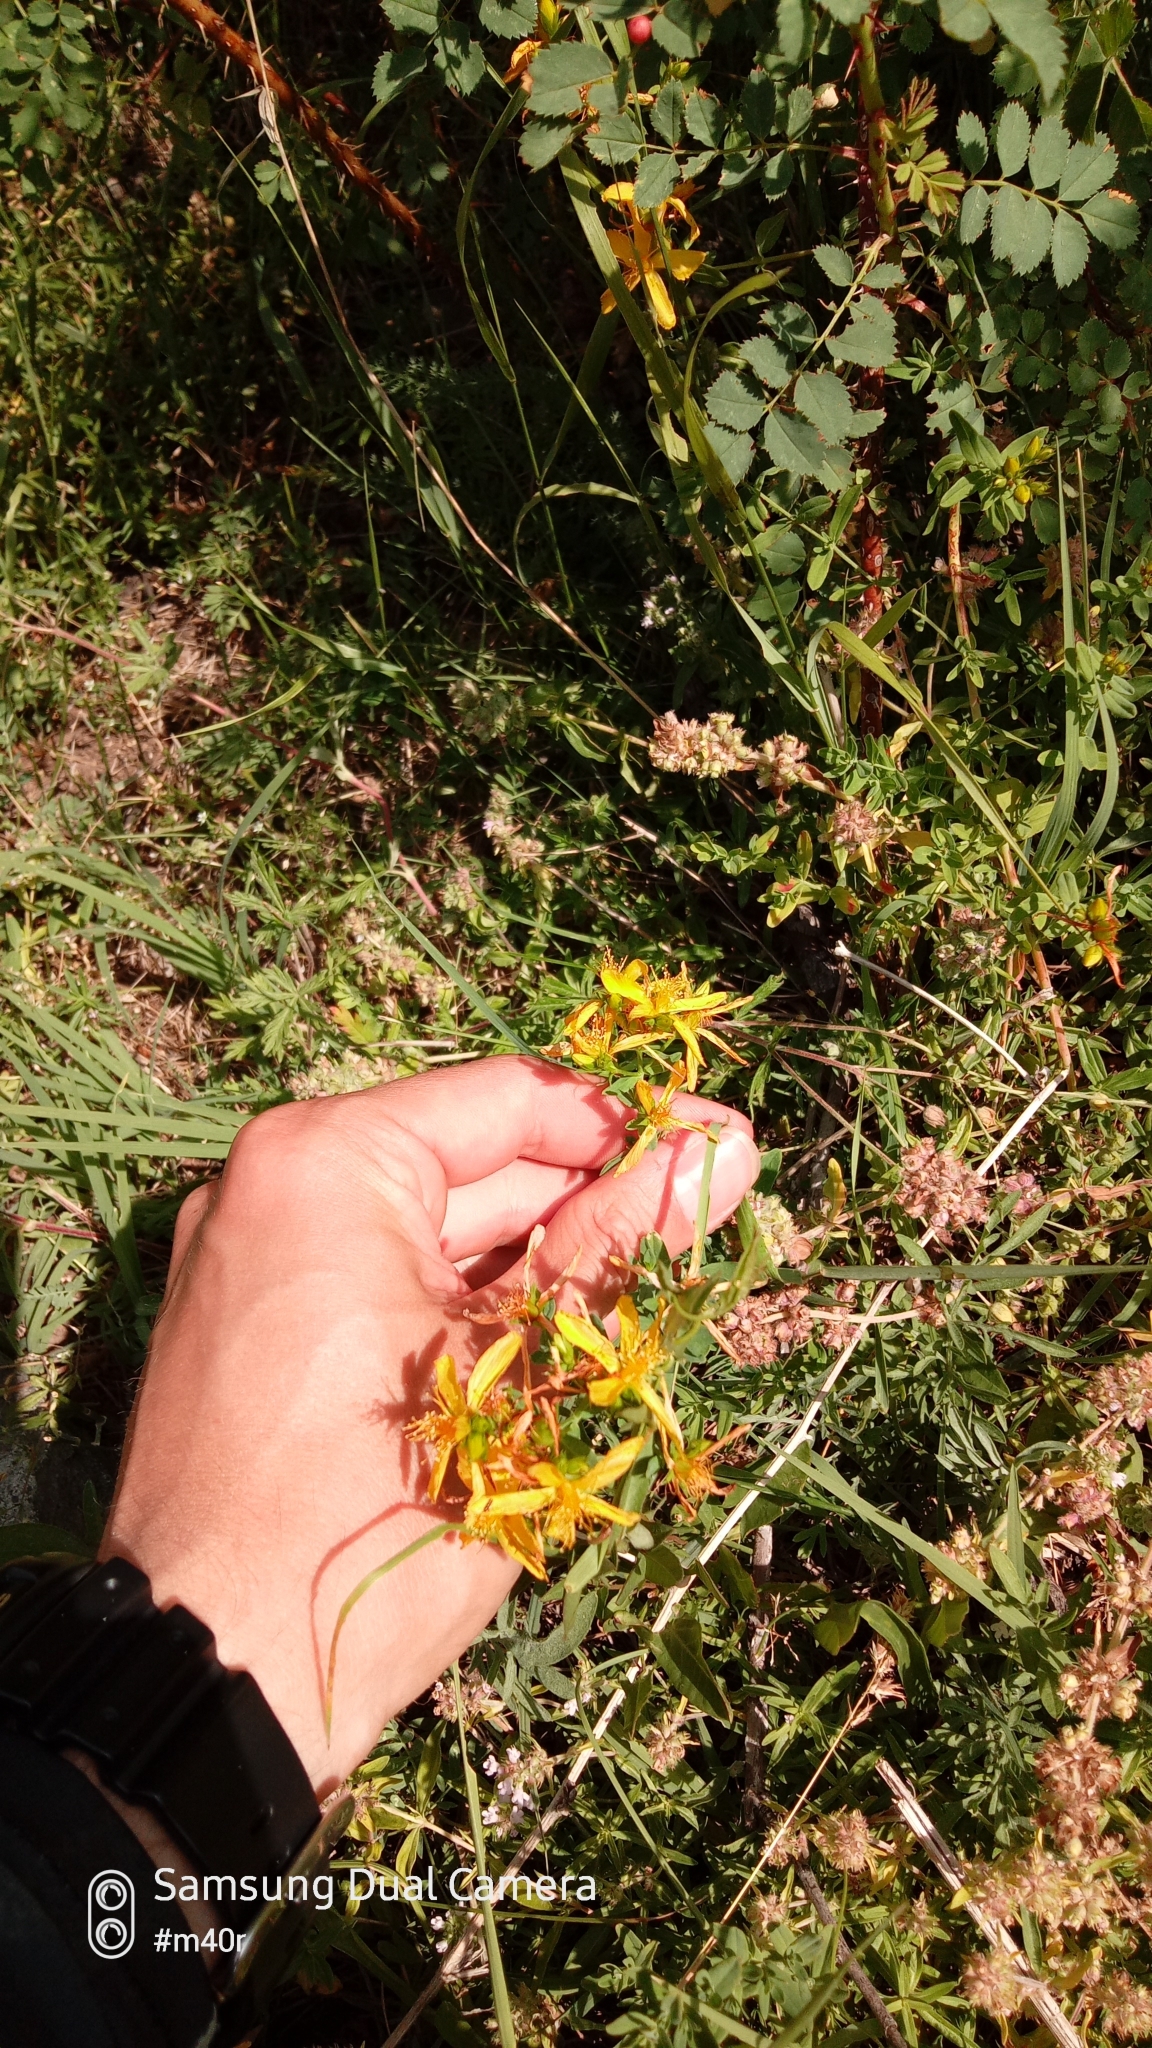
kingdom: Plantae
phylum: Tracheophyta
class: Magnoliopsida
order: Malpighiales
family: Hypericaceae
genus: Hypericum
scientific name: Hypericum perforatum
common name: Common st. johnswort
